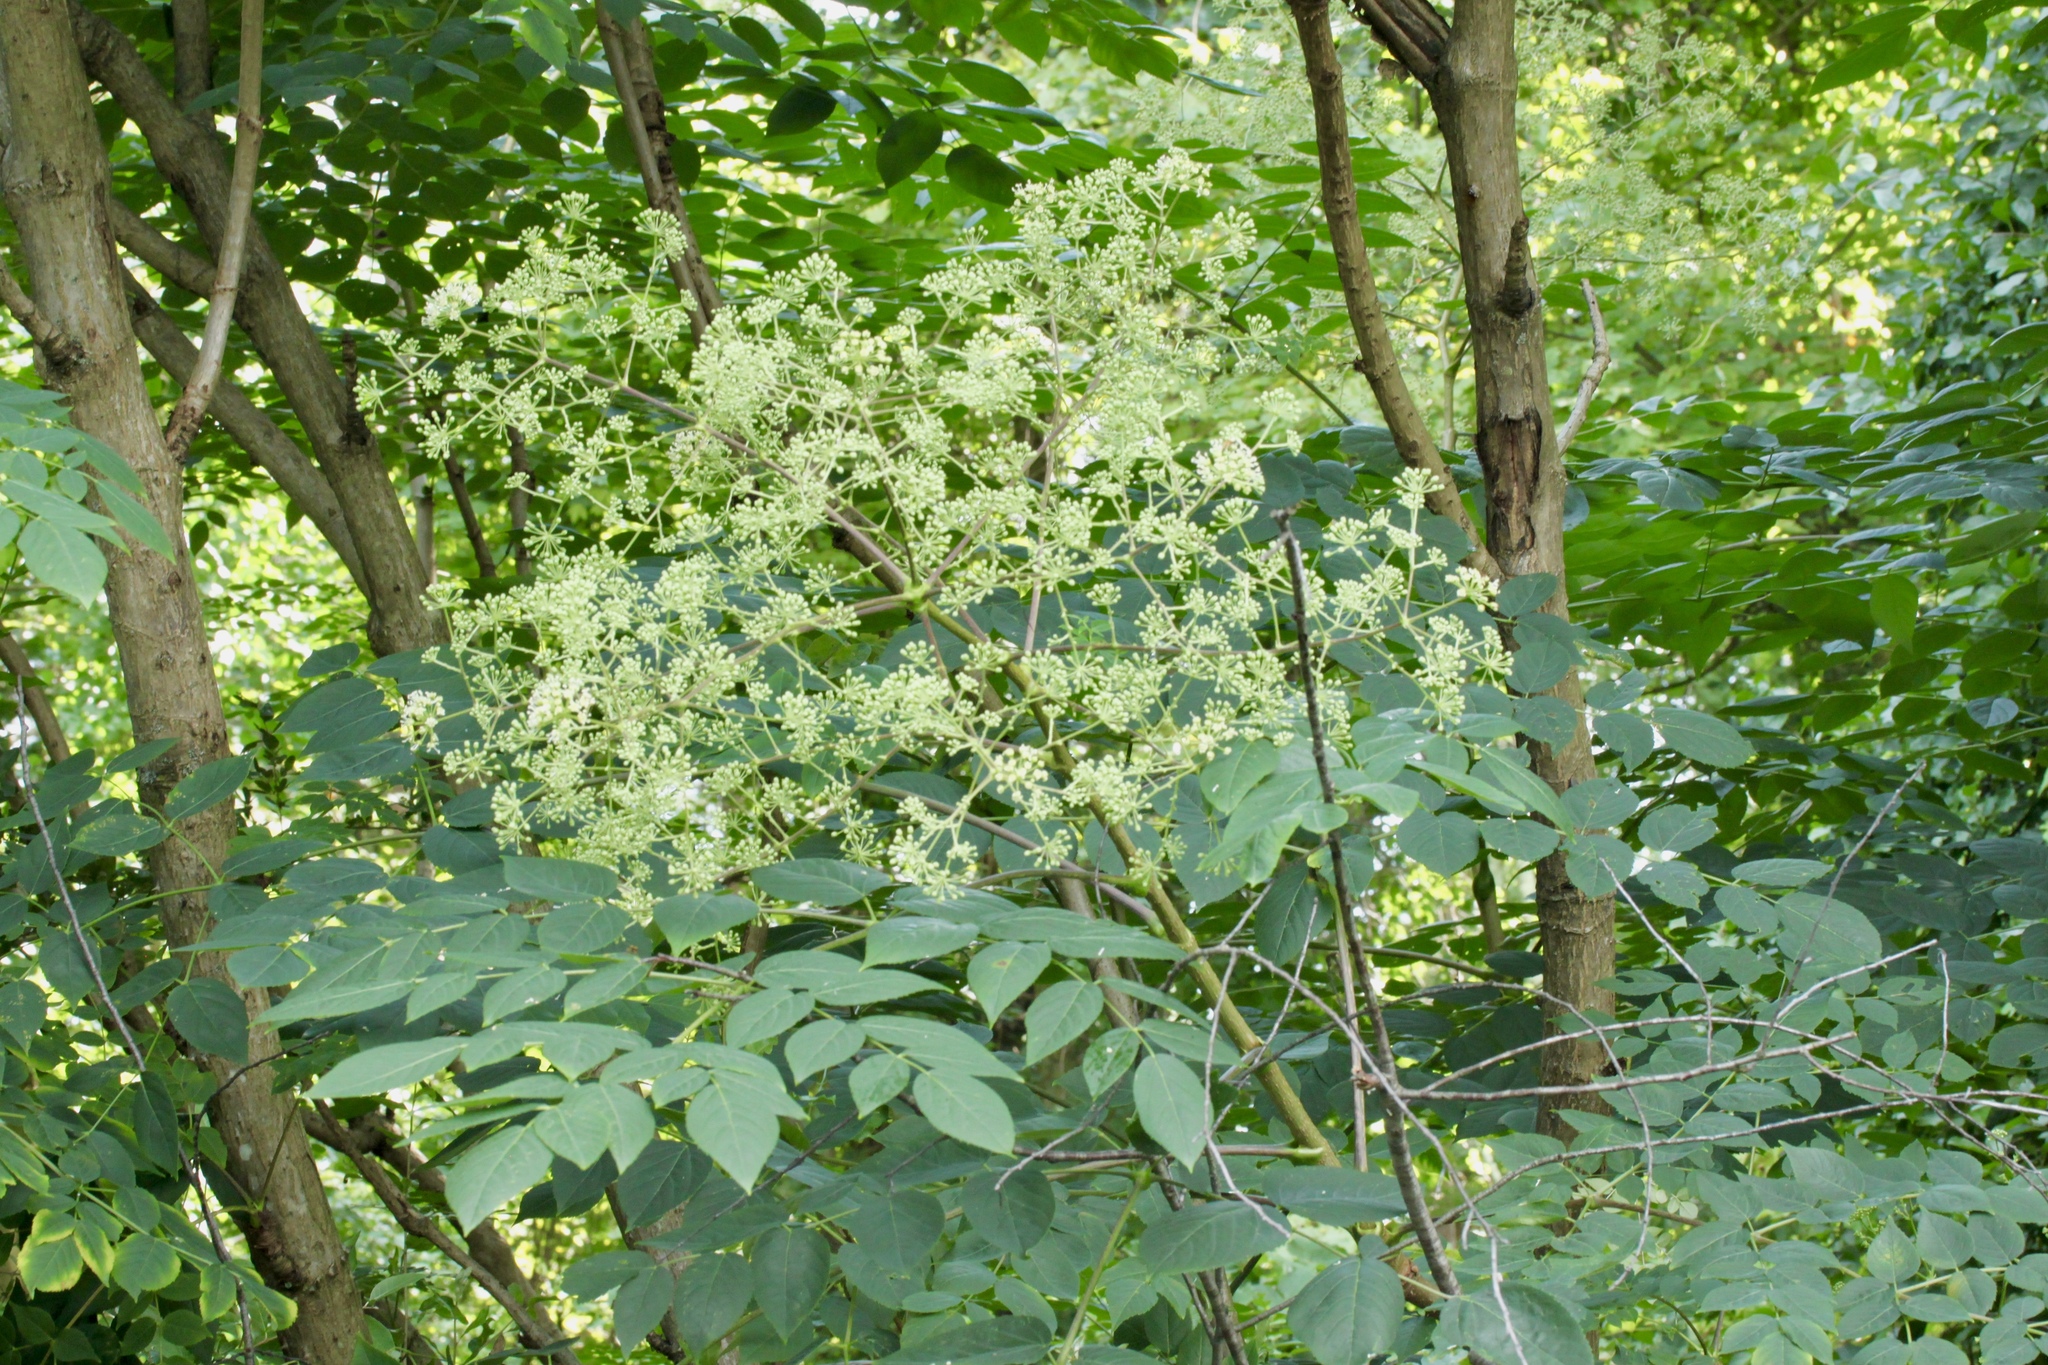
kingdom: Plantae
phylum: Tracheophyta
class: Magnoliopsida
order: Apiales
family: Araliaceae
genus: Aralia
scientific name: Aralia spinosa
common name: Hercules'-club
